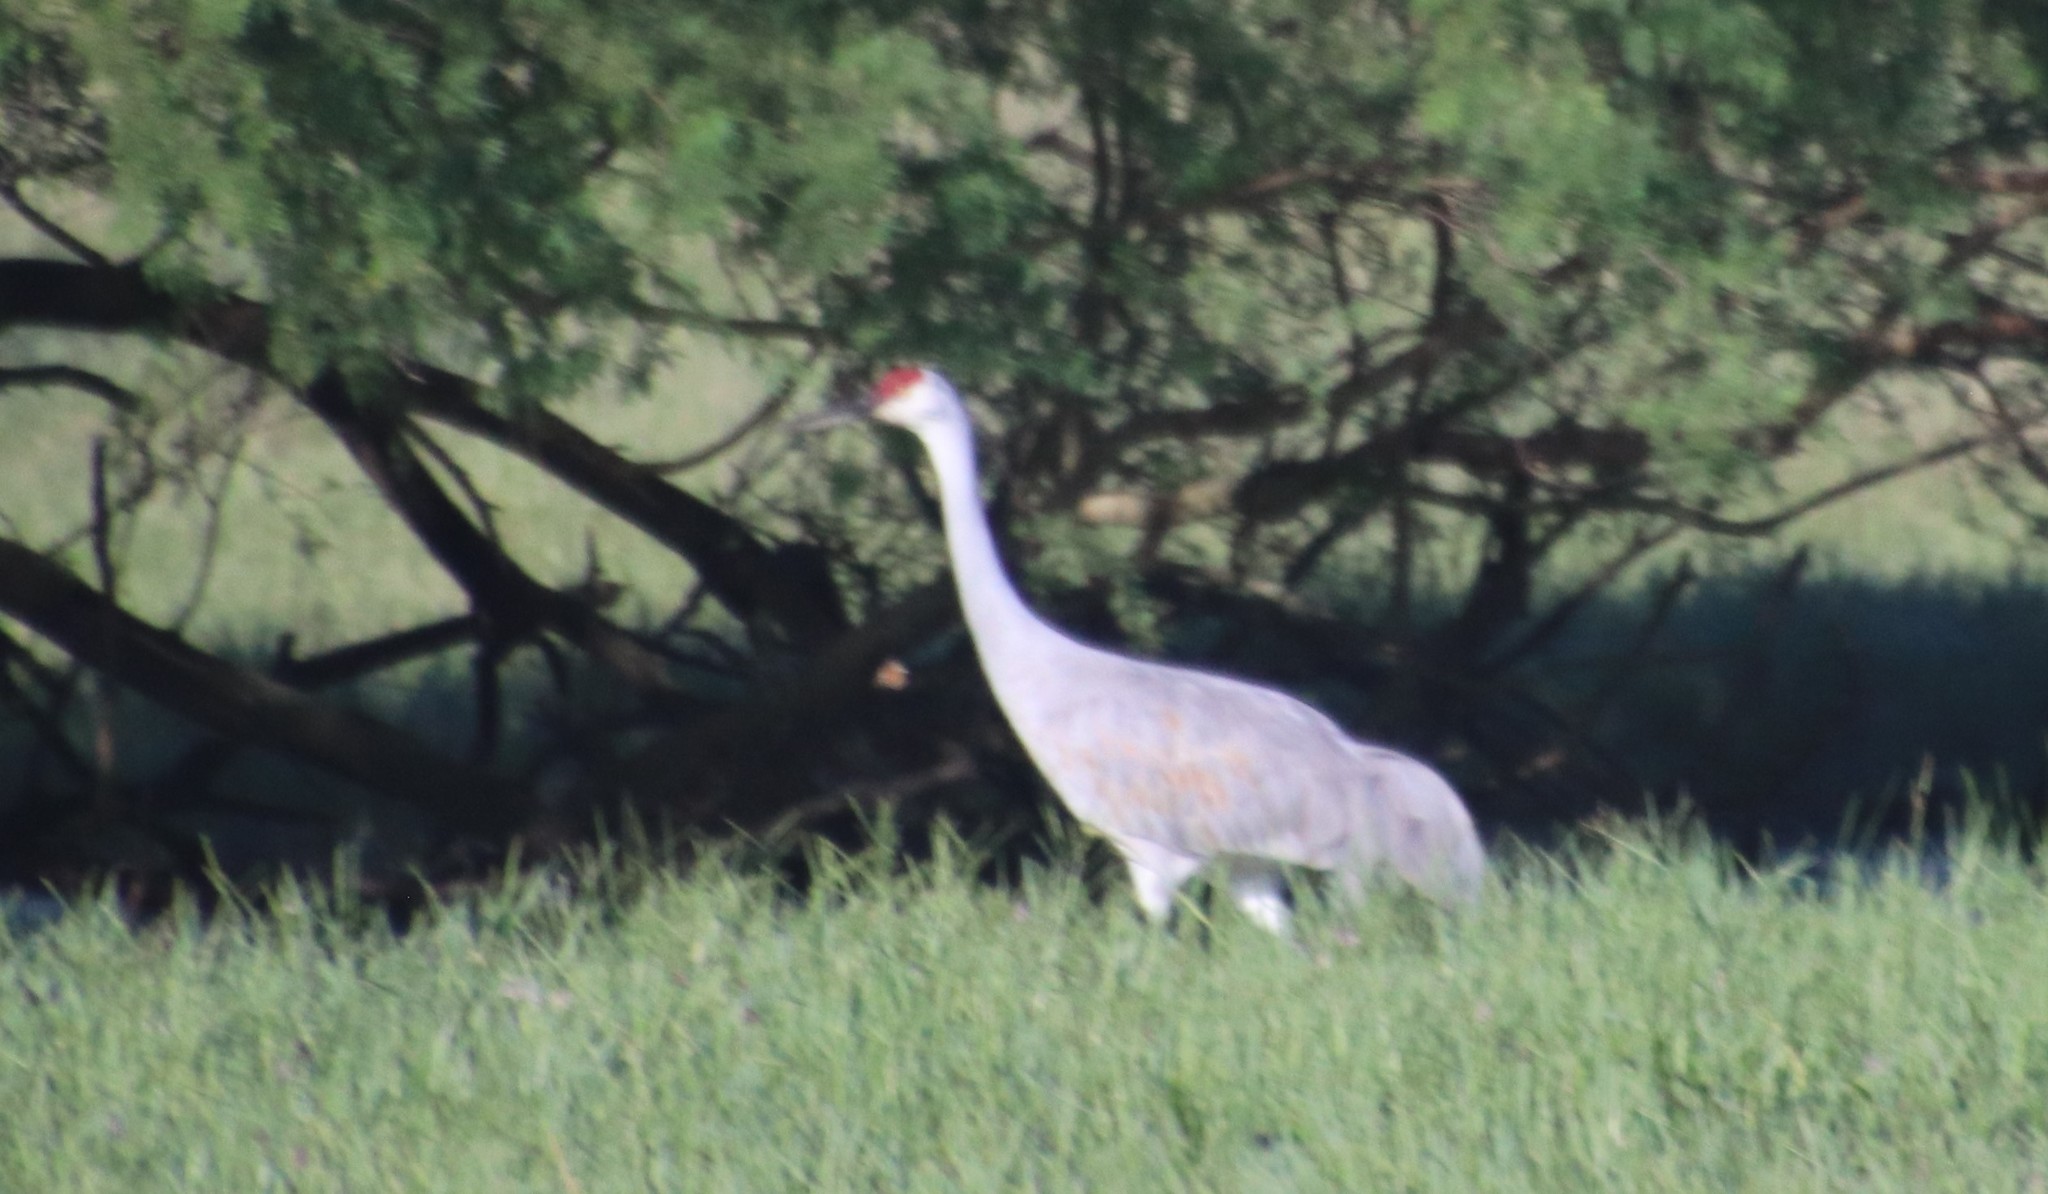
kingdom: Animalia
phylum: Chordata
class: Aves
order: Gruiformes
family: Gruidae
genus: Grus
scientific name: Grus canadensis
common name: Sandhill crane
